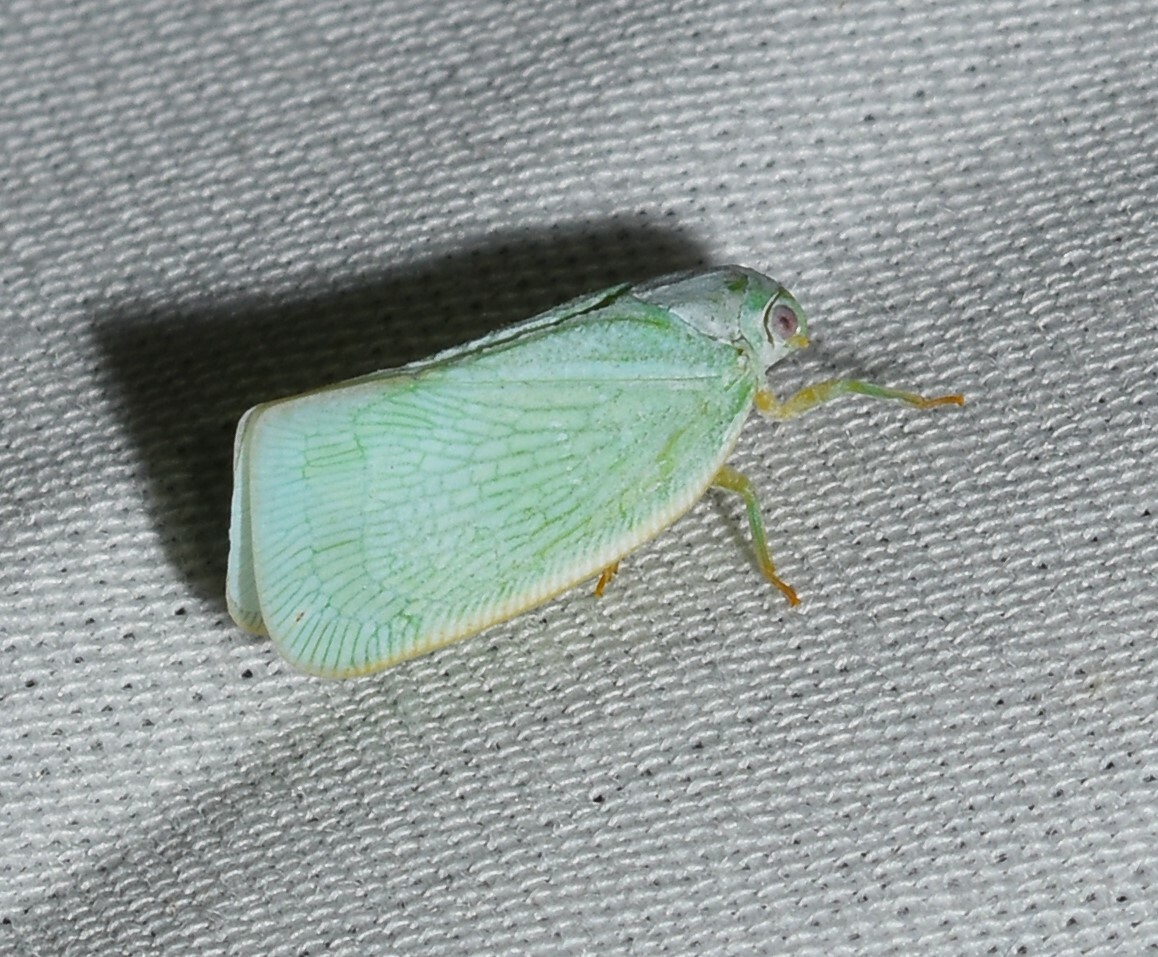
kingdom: Animalia
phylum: Arthropoda
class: Insecta
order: Hemiptera
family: Flatidae
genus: Flatormenis
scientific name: Flatormenis proxima
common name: Northern flatid planthopper
